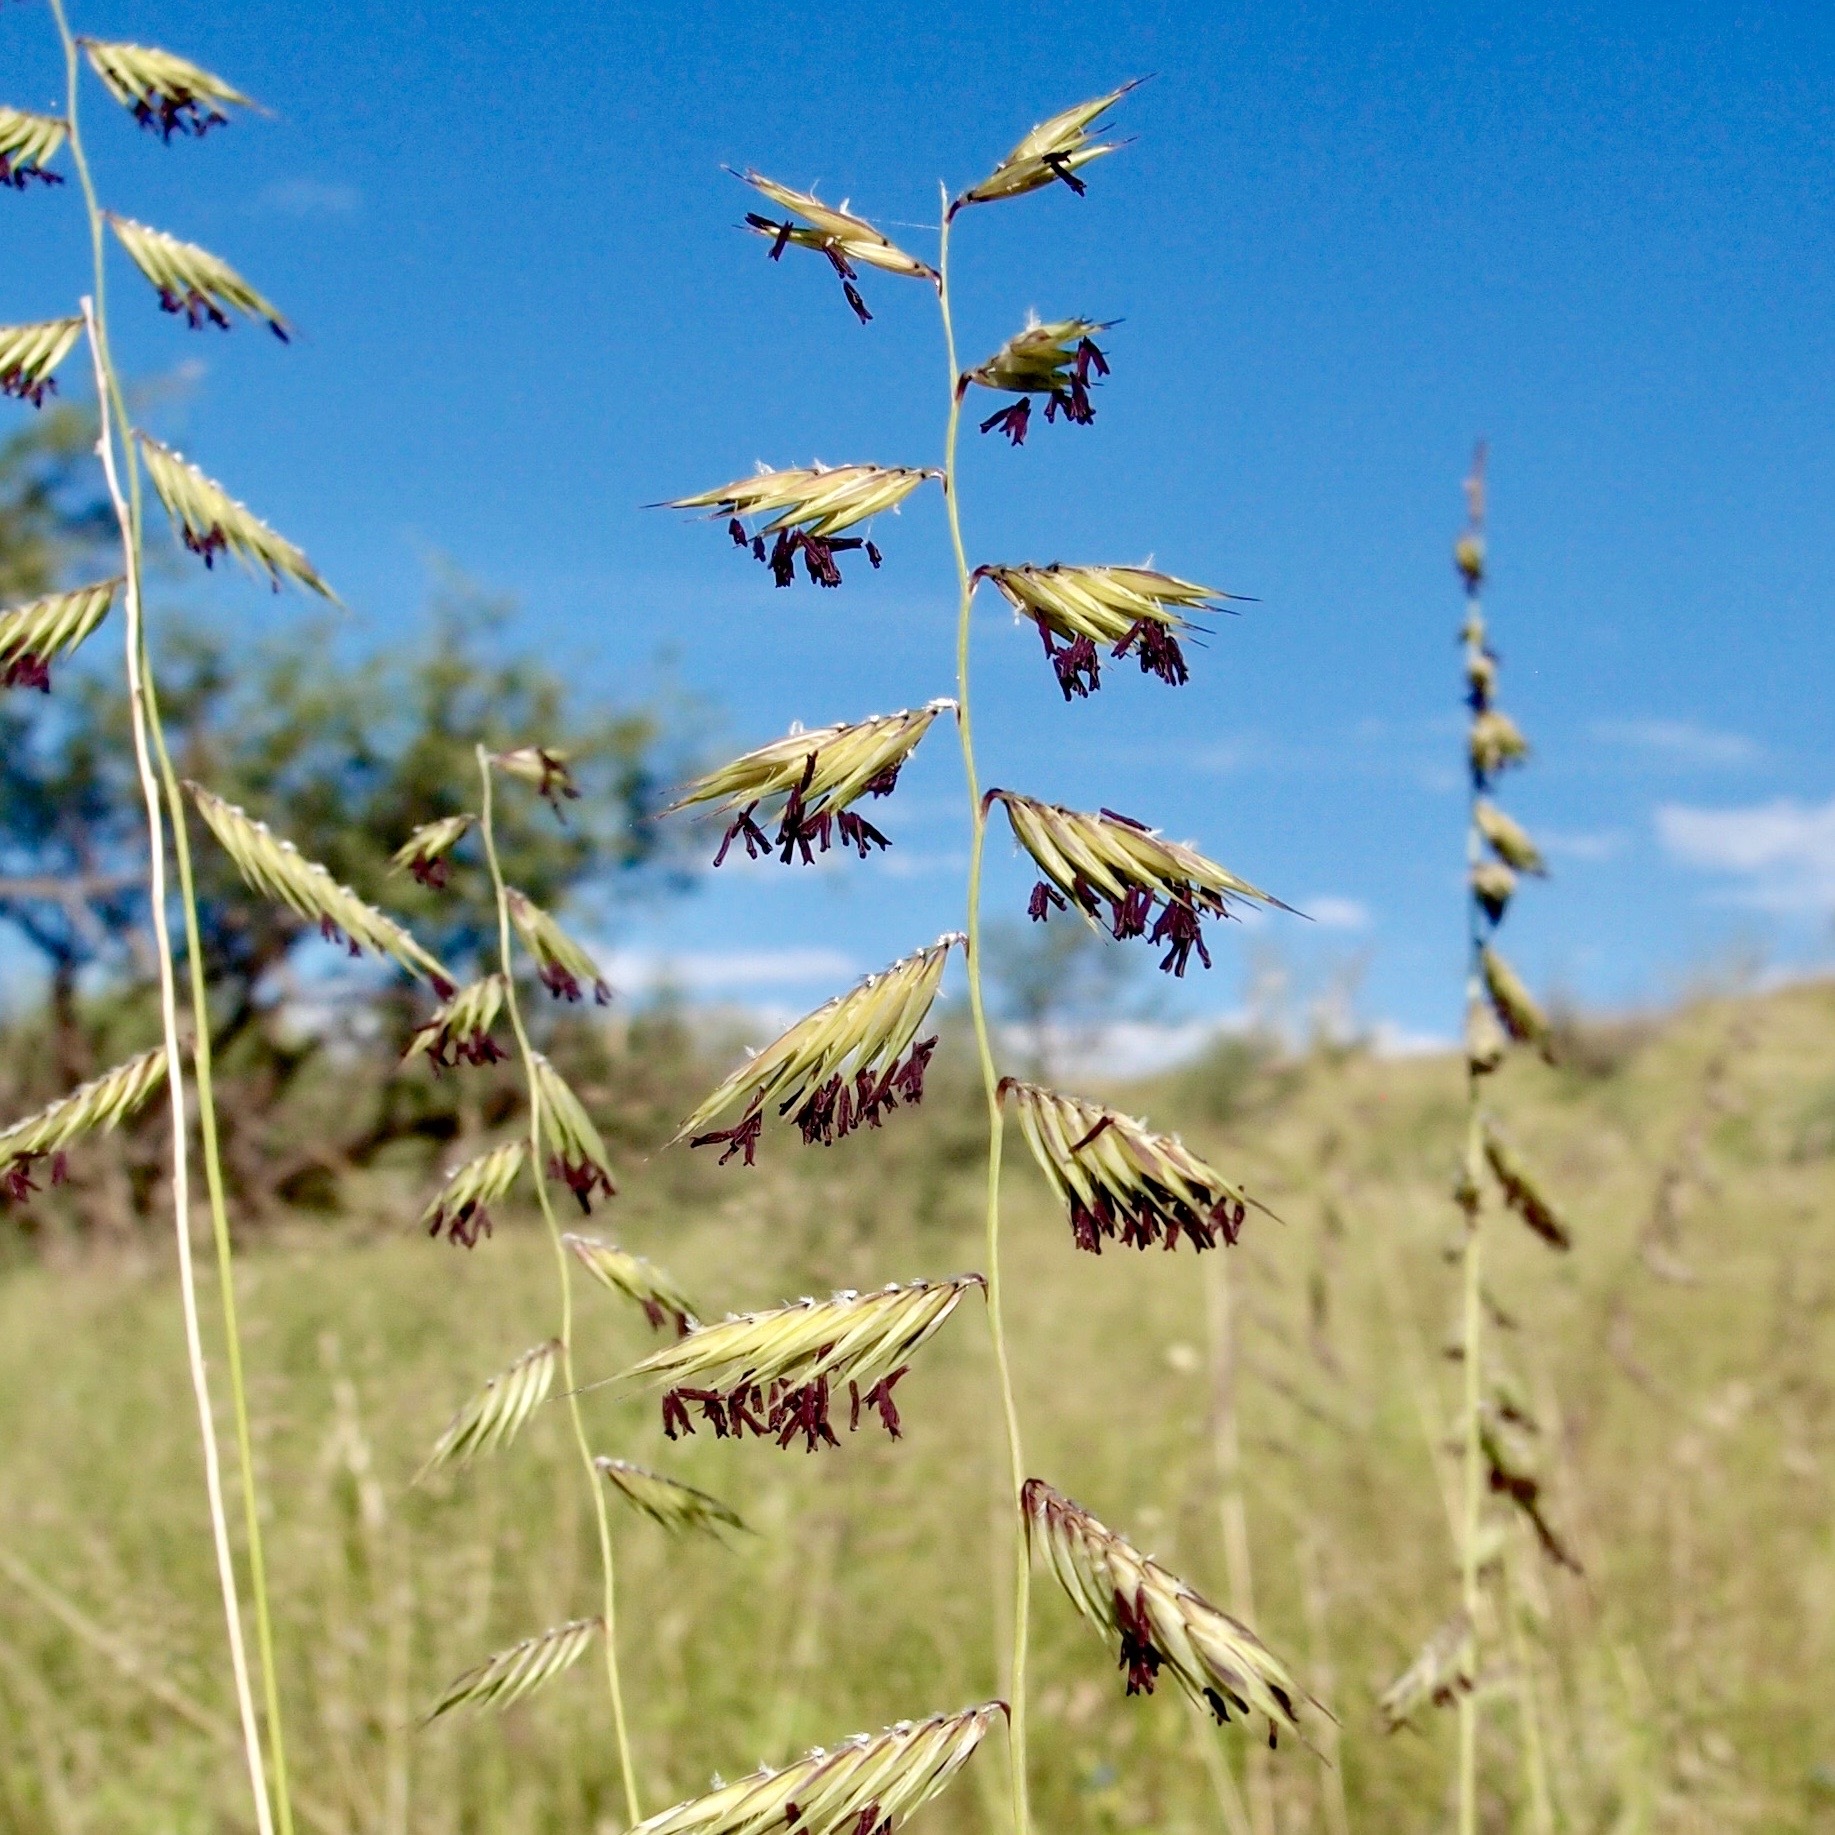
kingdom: Plantae
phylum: Tracheophyta
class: Liliopsida
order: Poales
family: Poaceae
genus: Bouteloua
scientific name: Bouteloua radicosa
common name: Purple grama
